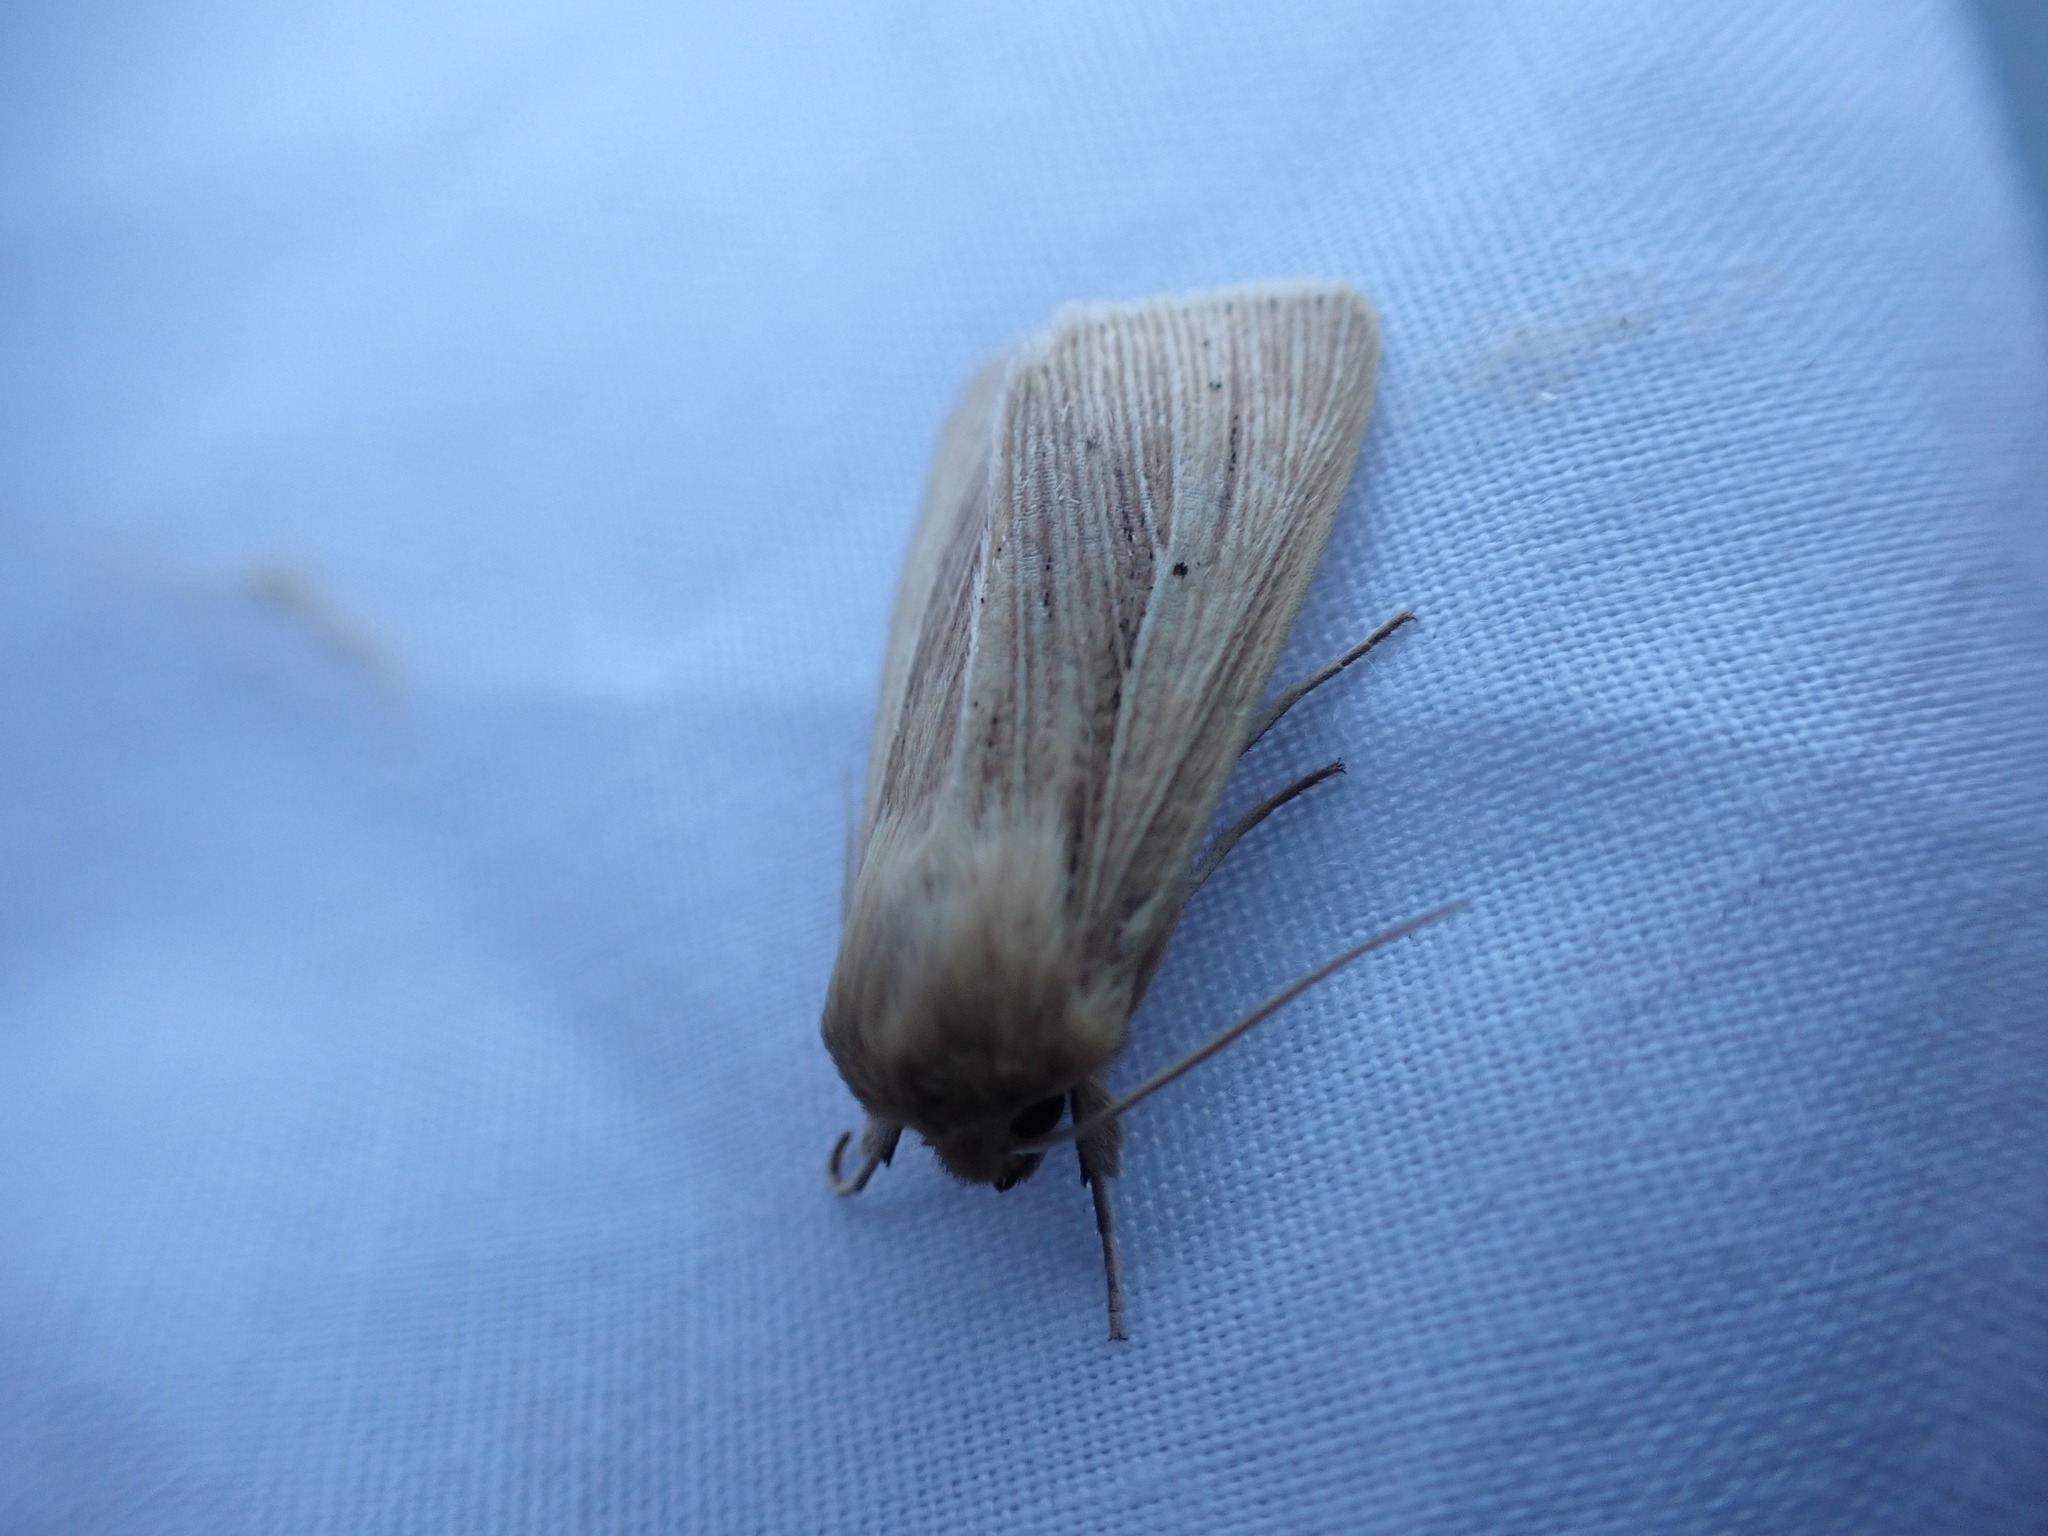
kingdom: Animalia
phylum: Arthropoda
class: Insecta
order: Lepidoptera
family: Noctuidae
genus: Mythimna
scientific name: Mythimna oxygala
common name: Lesser wainscot
